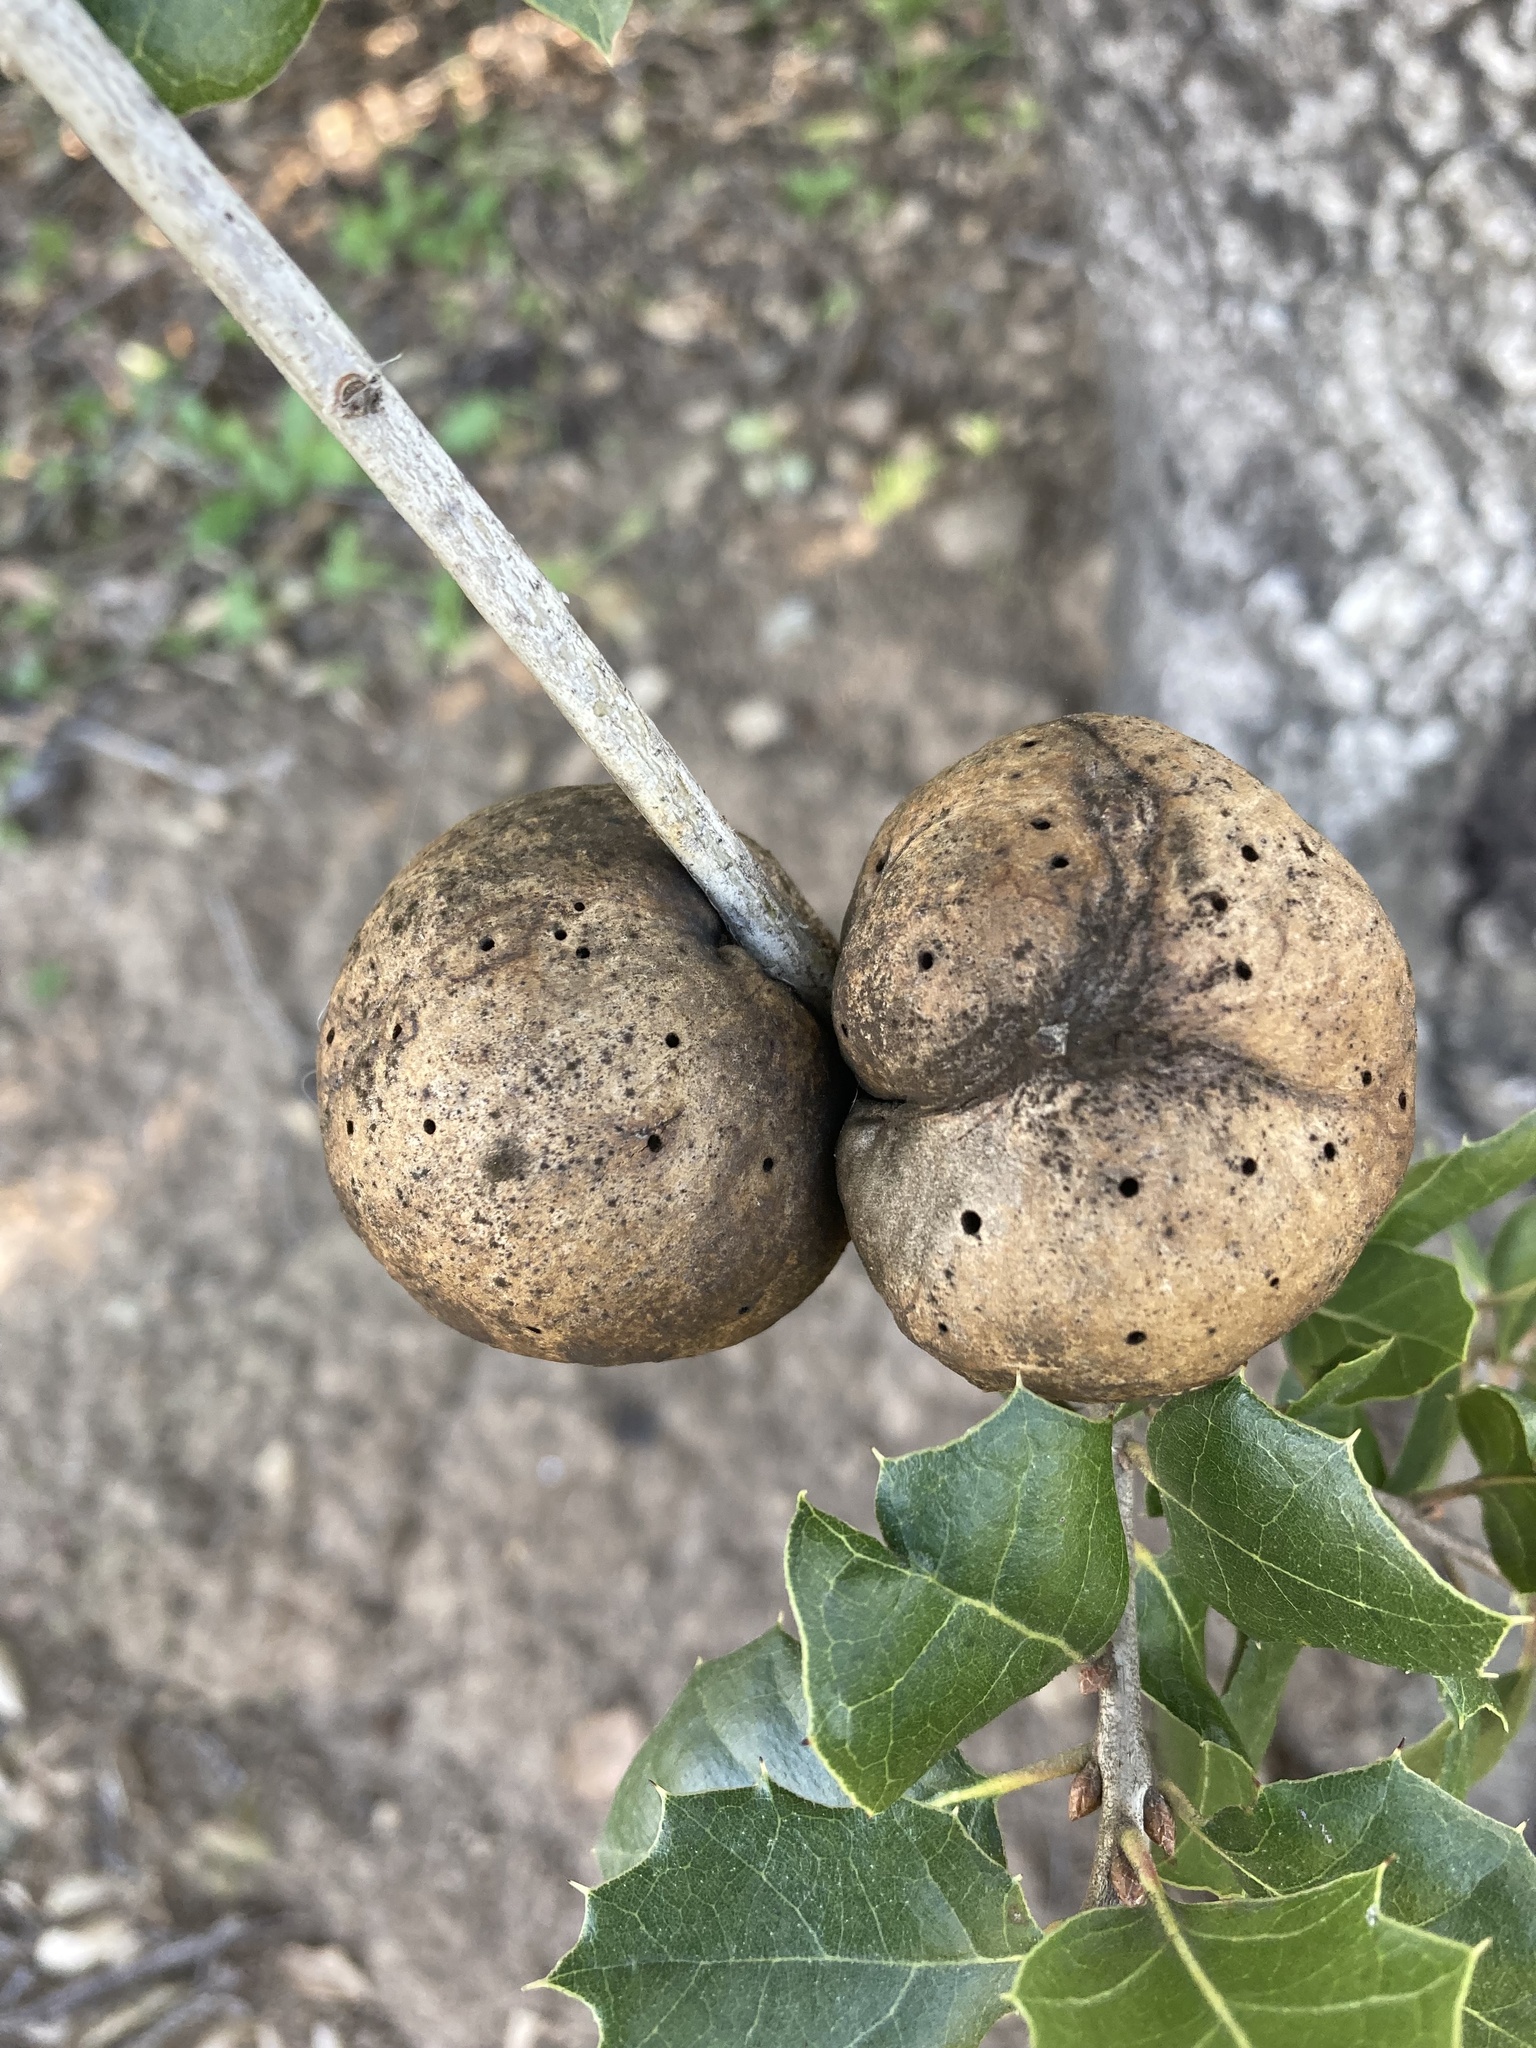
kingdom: Animalia
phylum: Arthropoda
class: Insecta
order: Hymenoptera
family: Cynipidae
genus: Amphibolips
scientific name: Amphibolips quercuspomiformis
